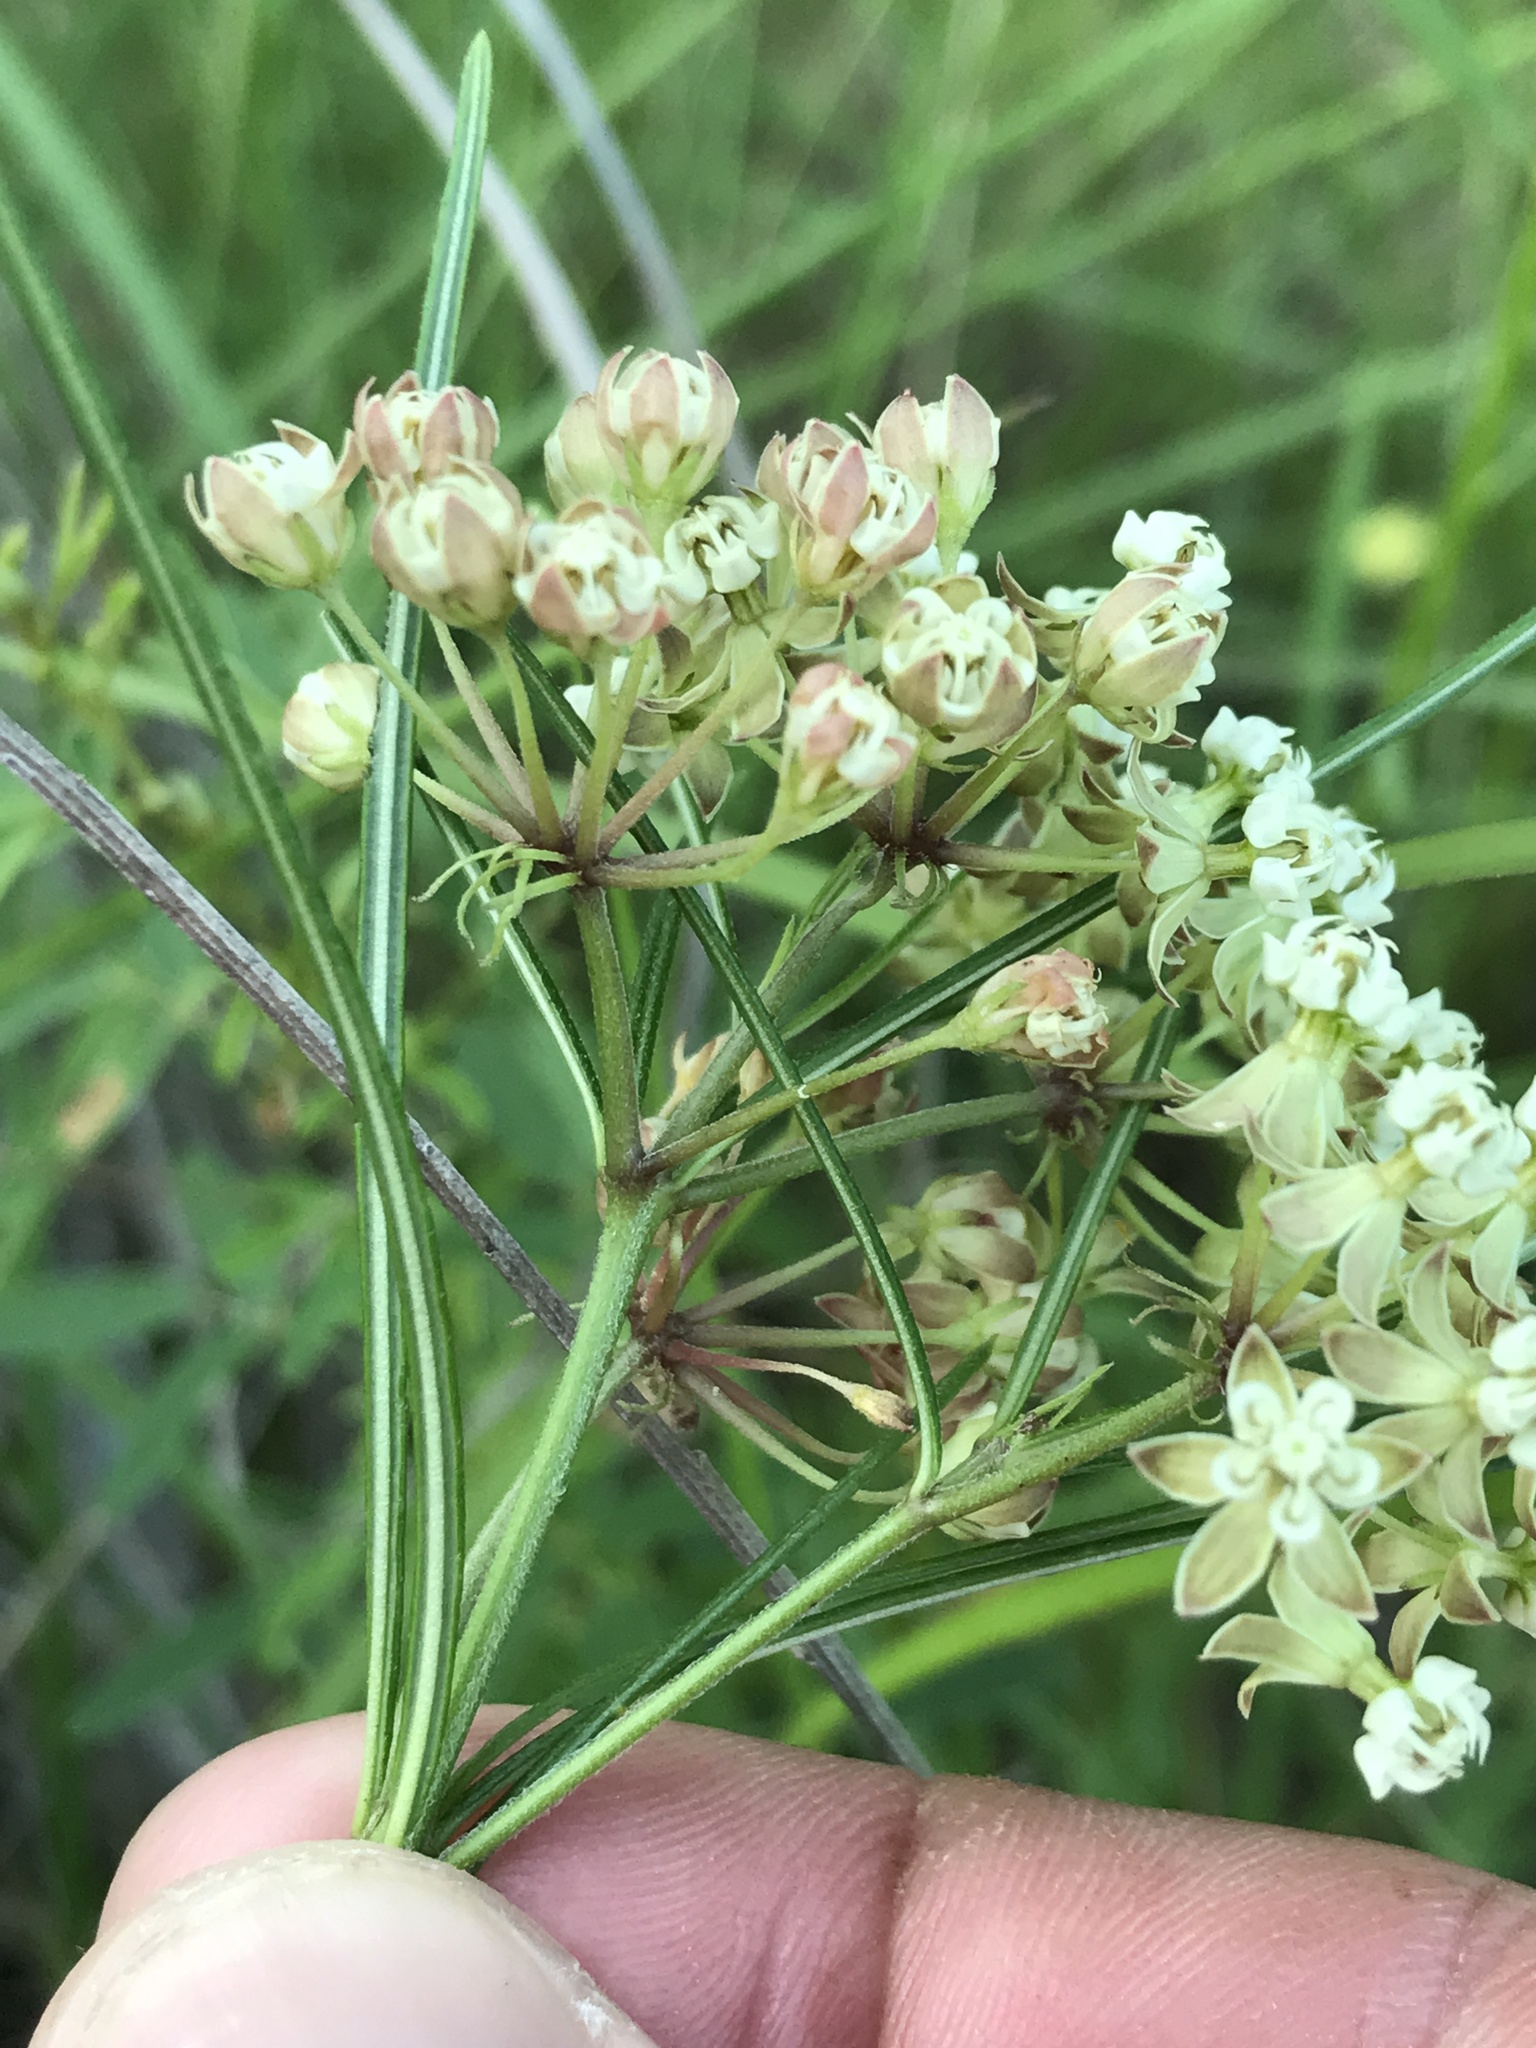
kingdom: Plantae
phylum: Tracheophyta
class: Magnoliopsida
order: Gentianales
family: Apocynaceae
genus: Asclepias
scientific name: Asclepias verticillata
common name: Eastern whorled milkweed
